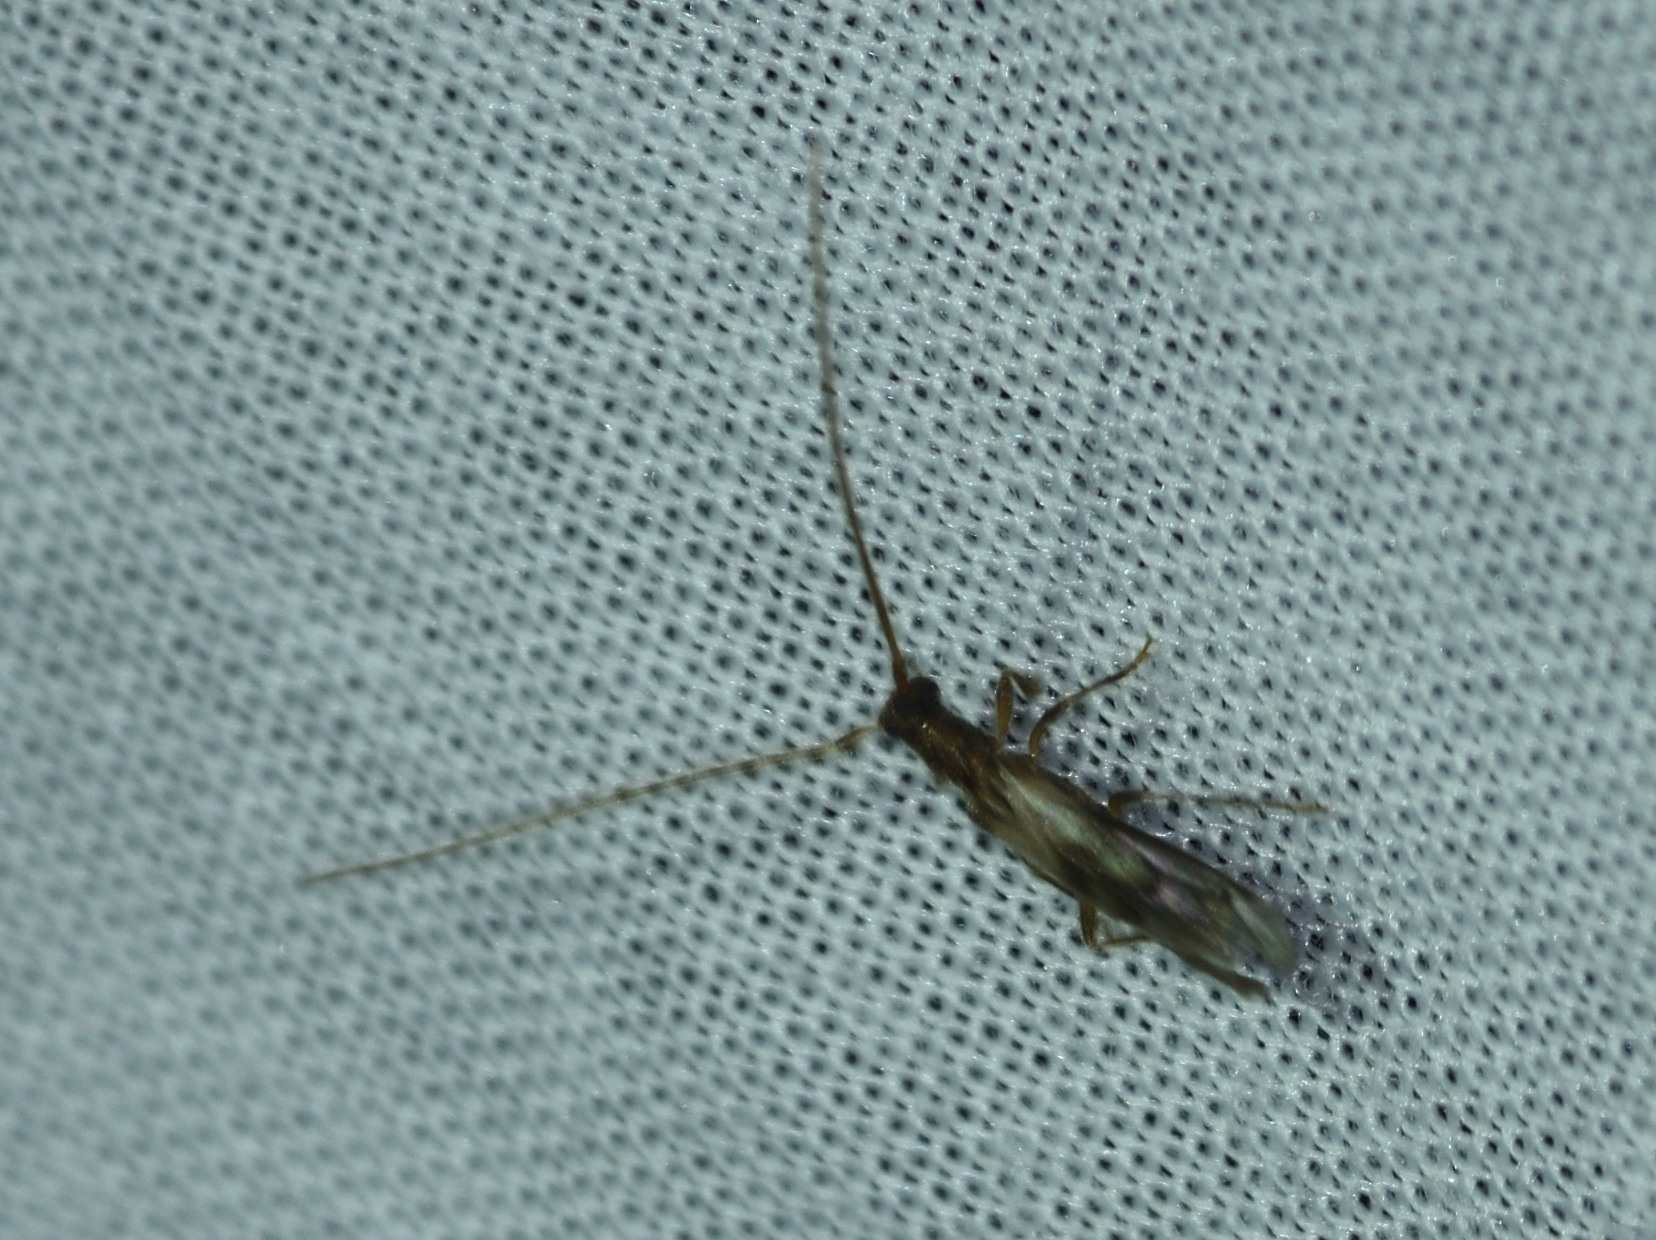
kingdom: Animalia
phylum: Arthropoda
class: Insecta
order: Coleoptera
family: Cerambycidae
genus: Methia
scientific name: Methia necydalea
